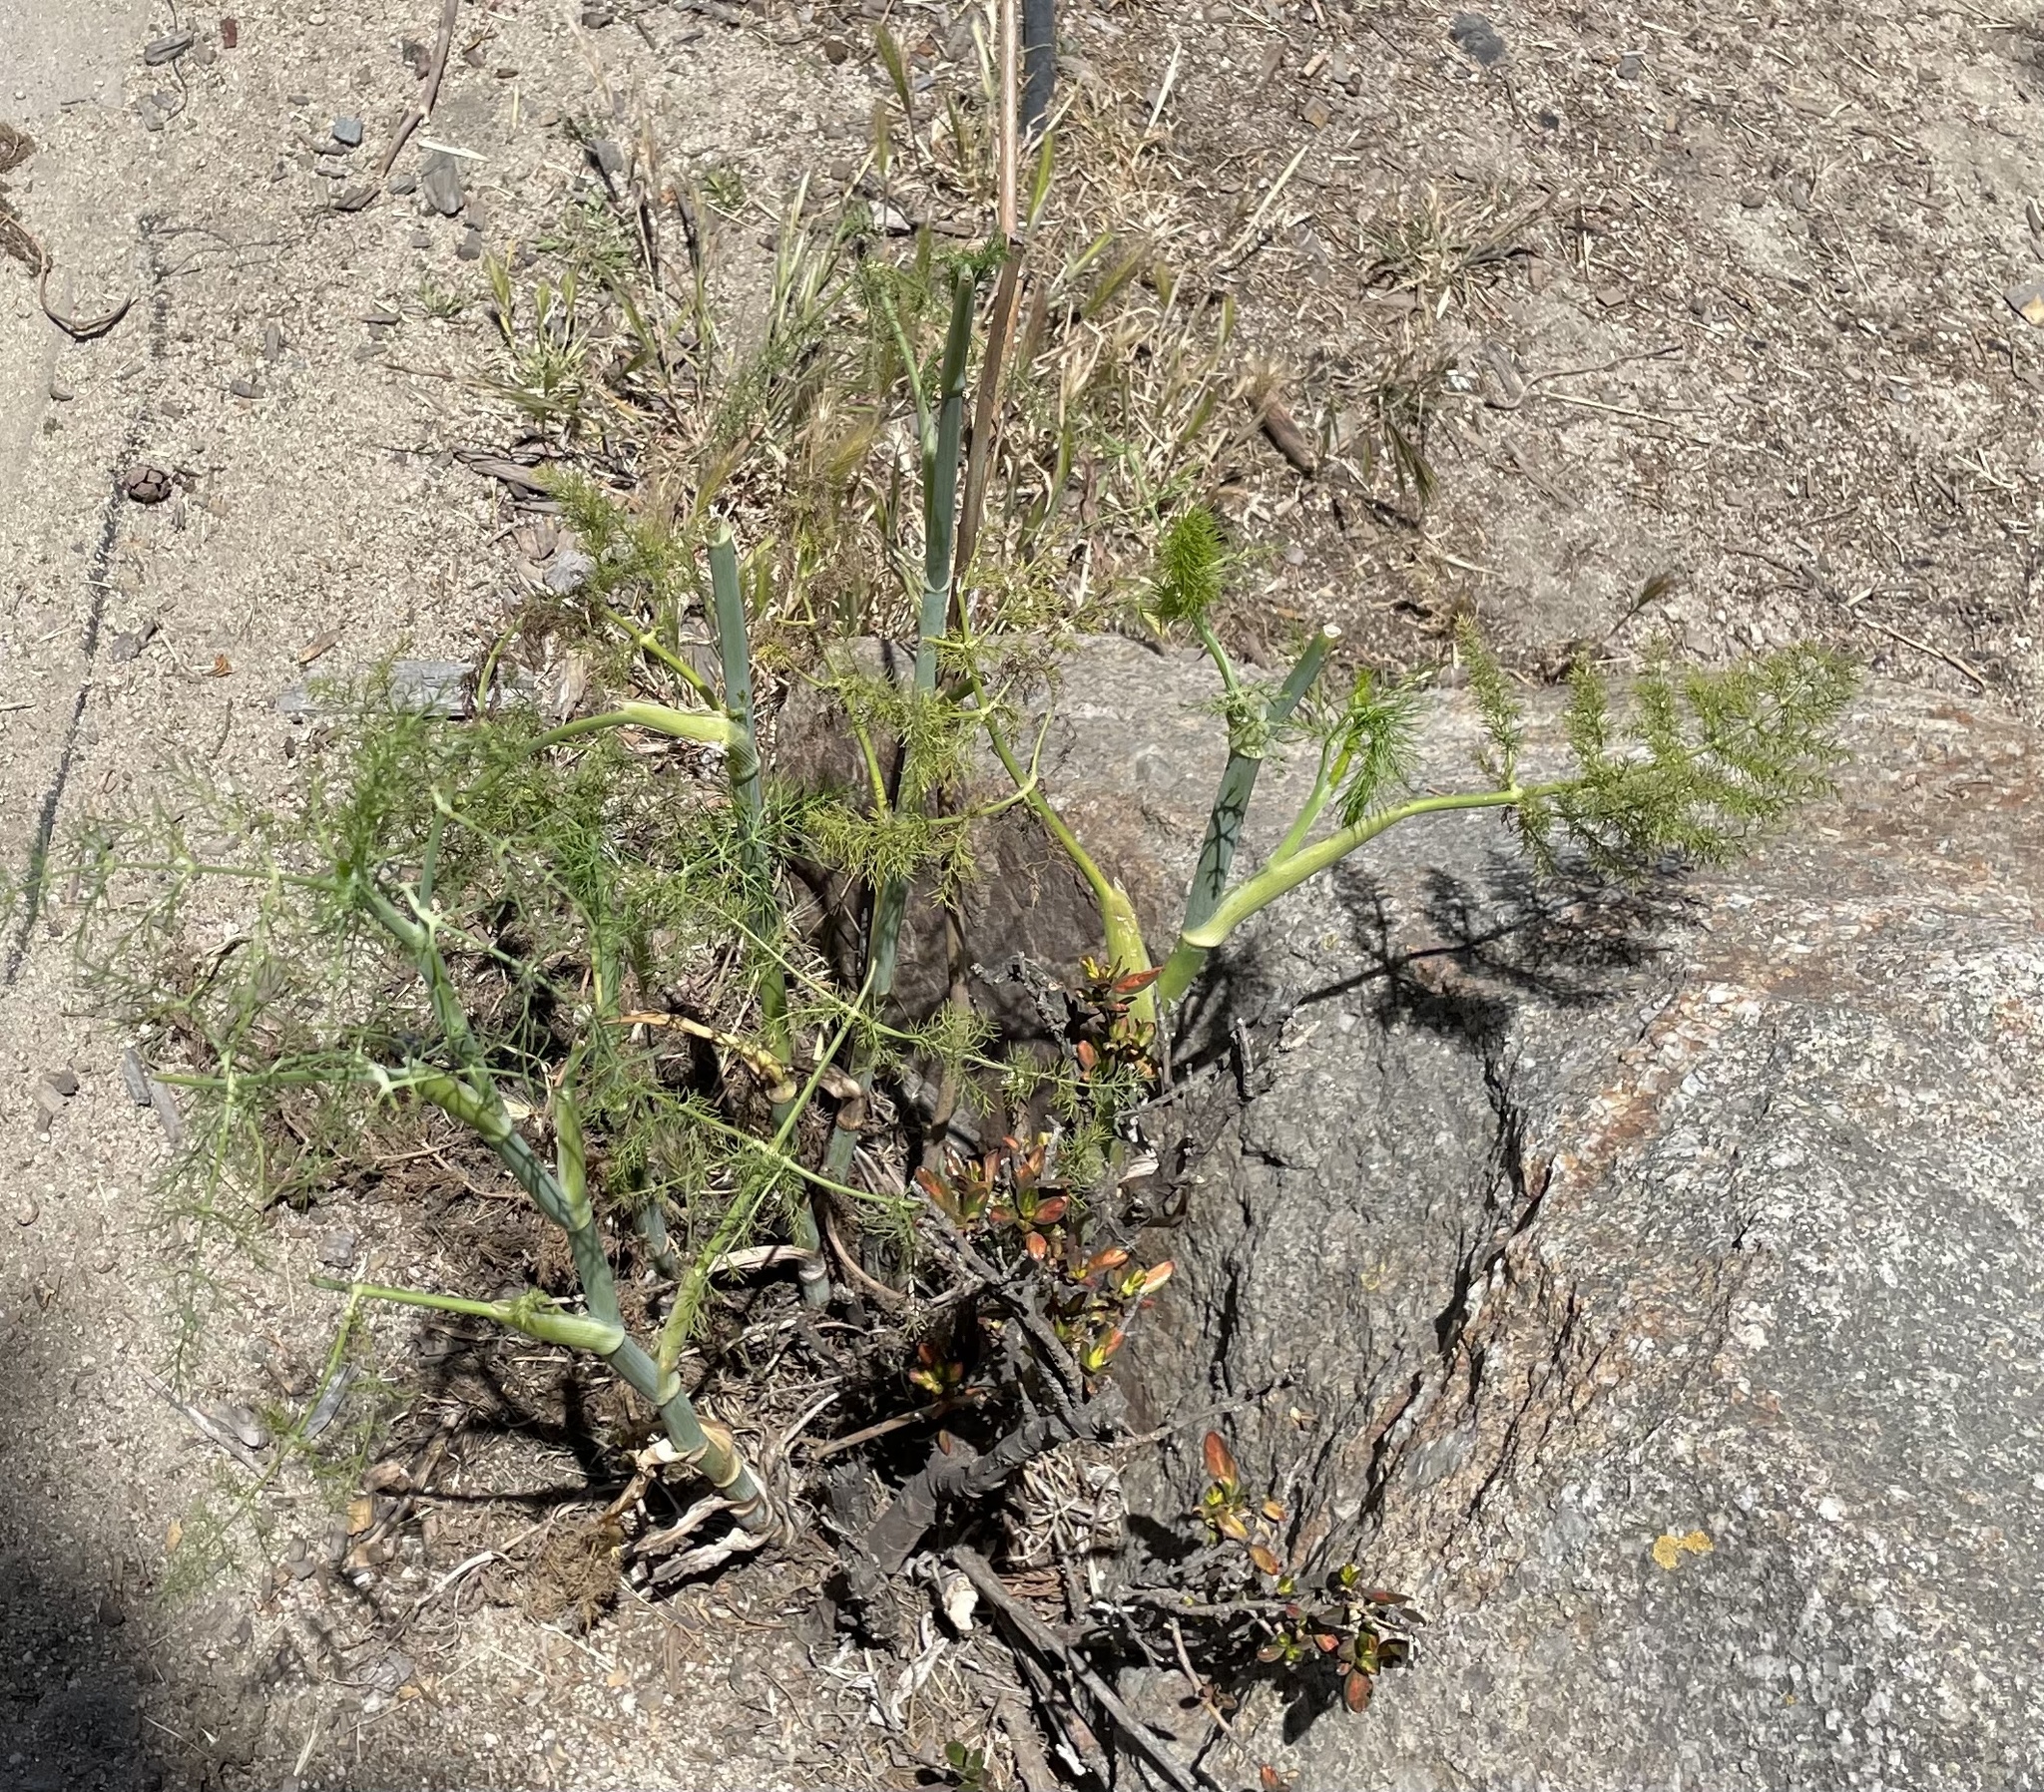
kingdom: Plantae
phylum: Tracheophyta
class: Magnoliopsida
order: Apiales
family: Apiaceae
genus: Foeniculum
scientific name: Foeniculum vulgare
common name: Fennel
